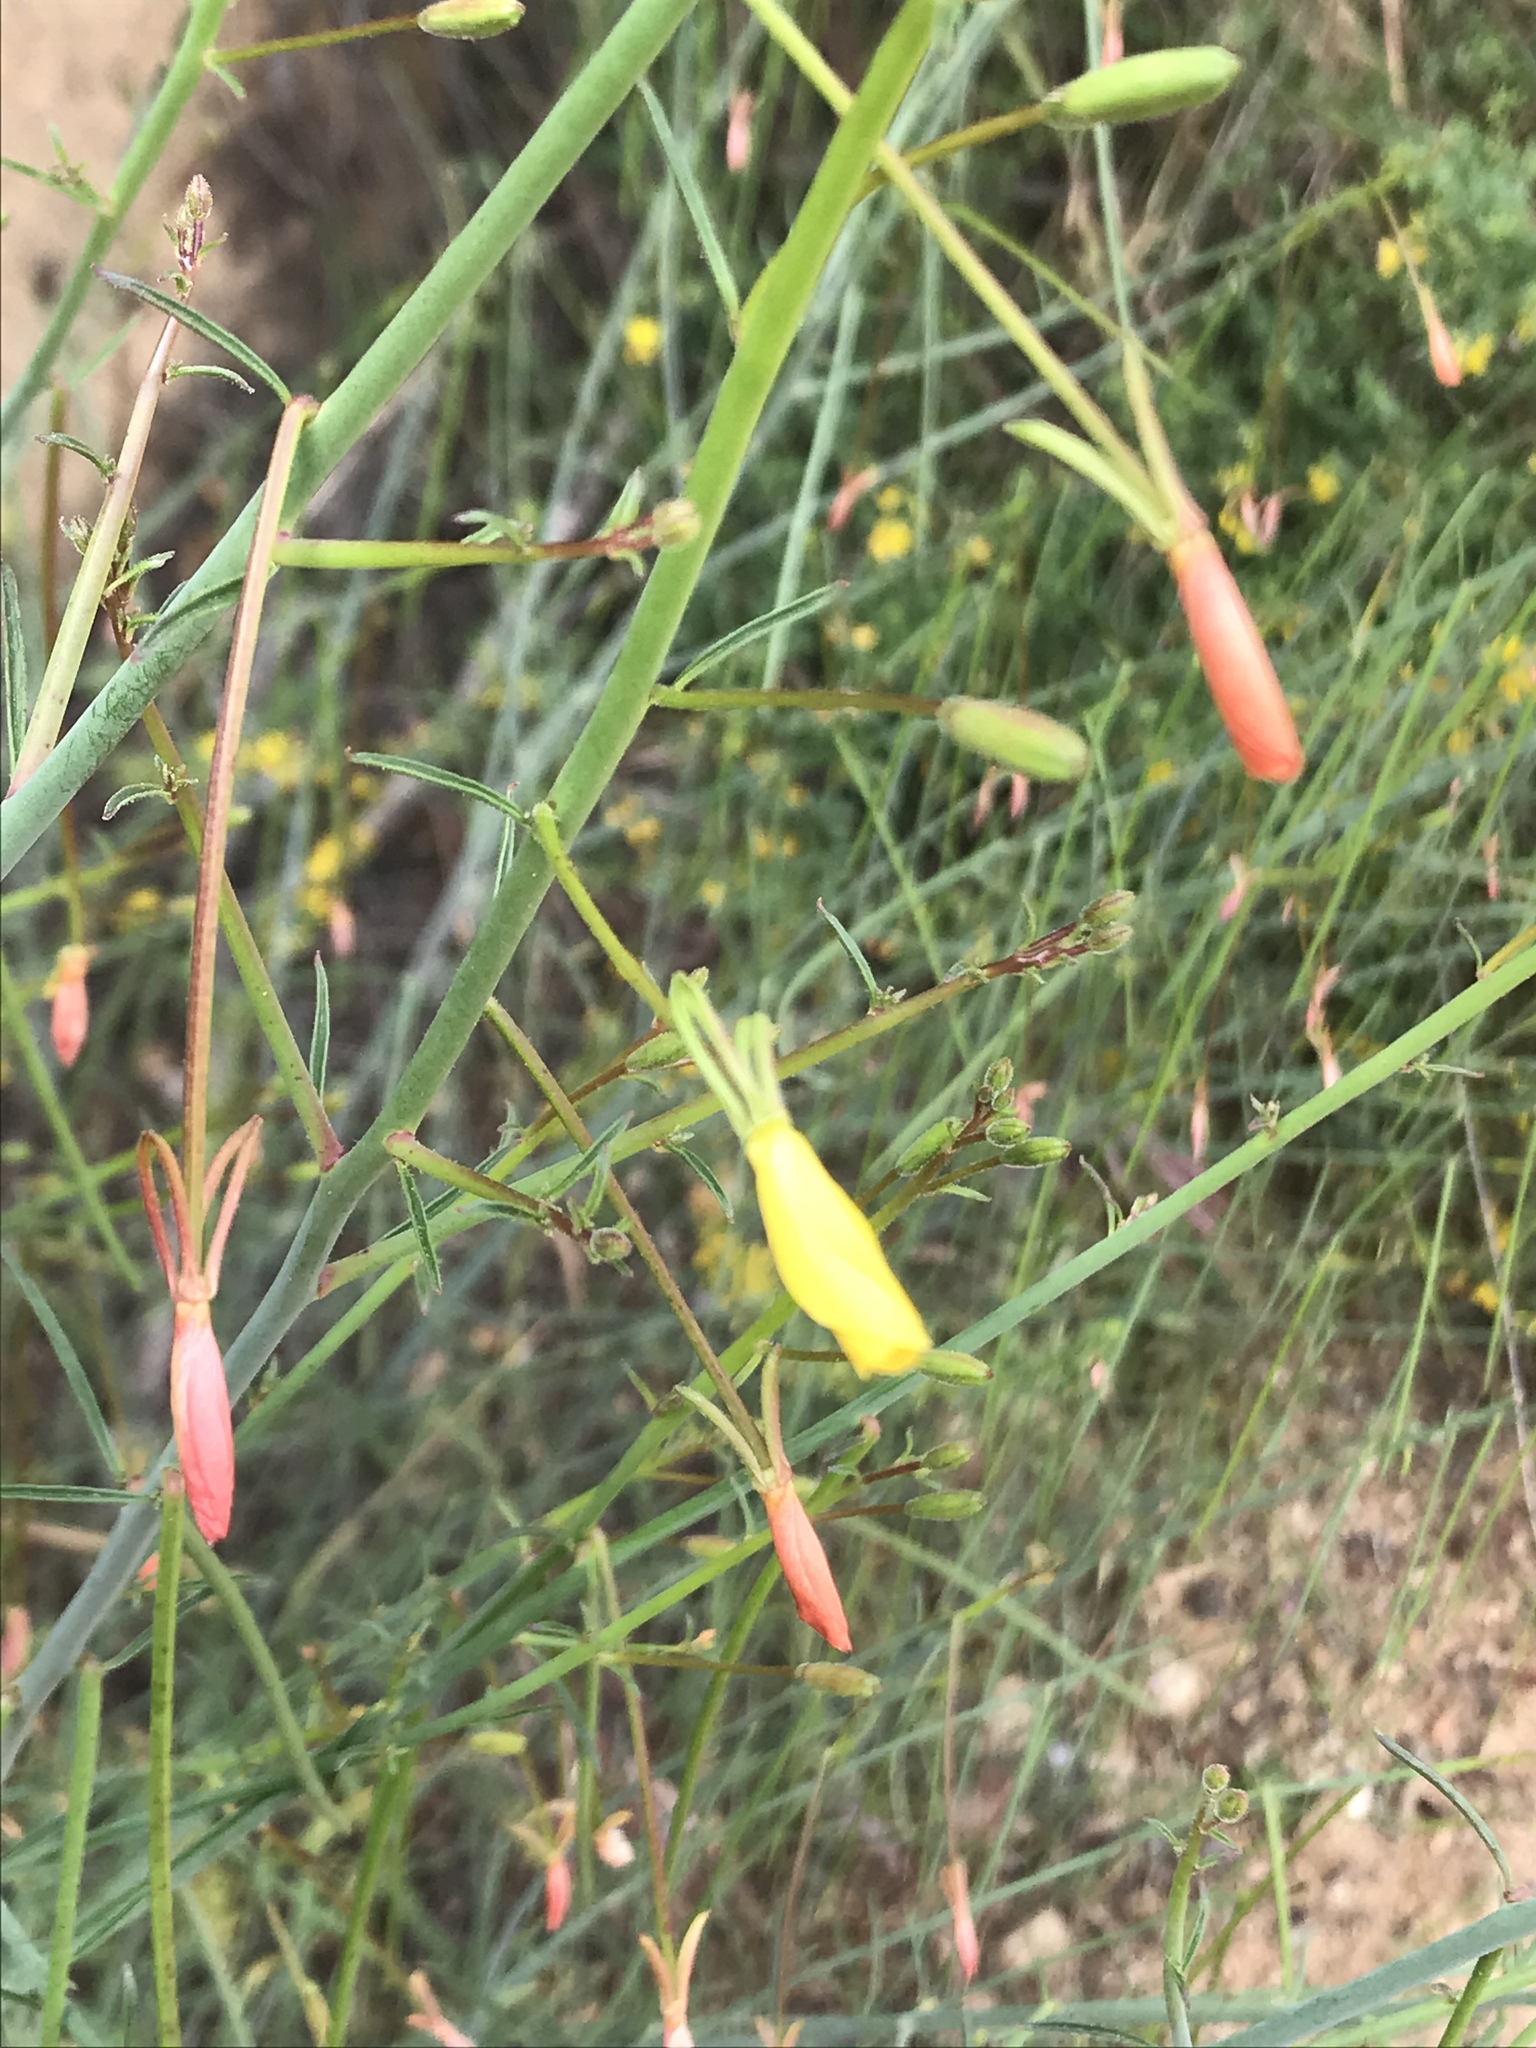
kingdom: Plantae
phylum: Tracheophyta
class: Magnoliopsida
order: Myrtales
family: Onagraceae
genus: Eulobus
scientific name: Eulobus californicus
